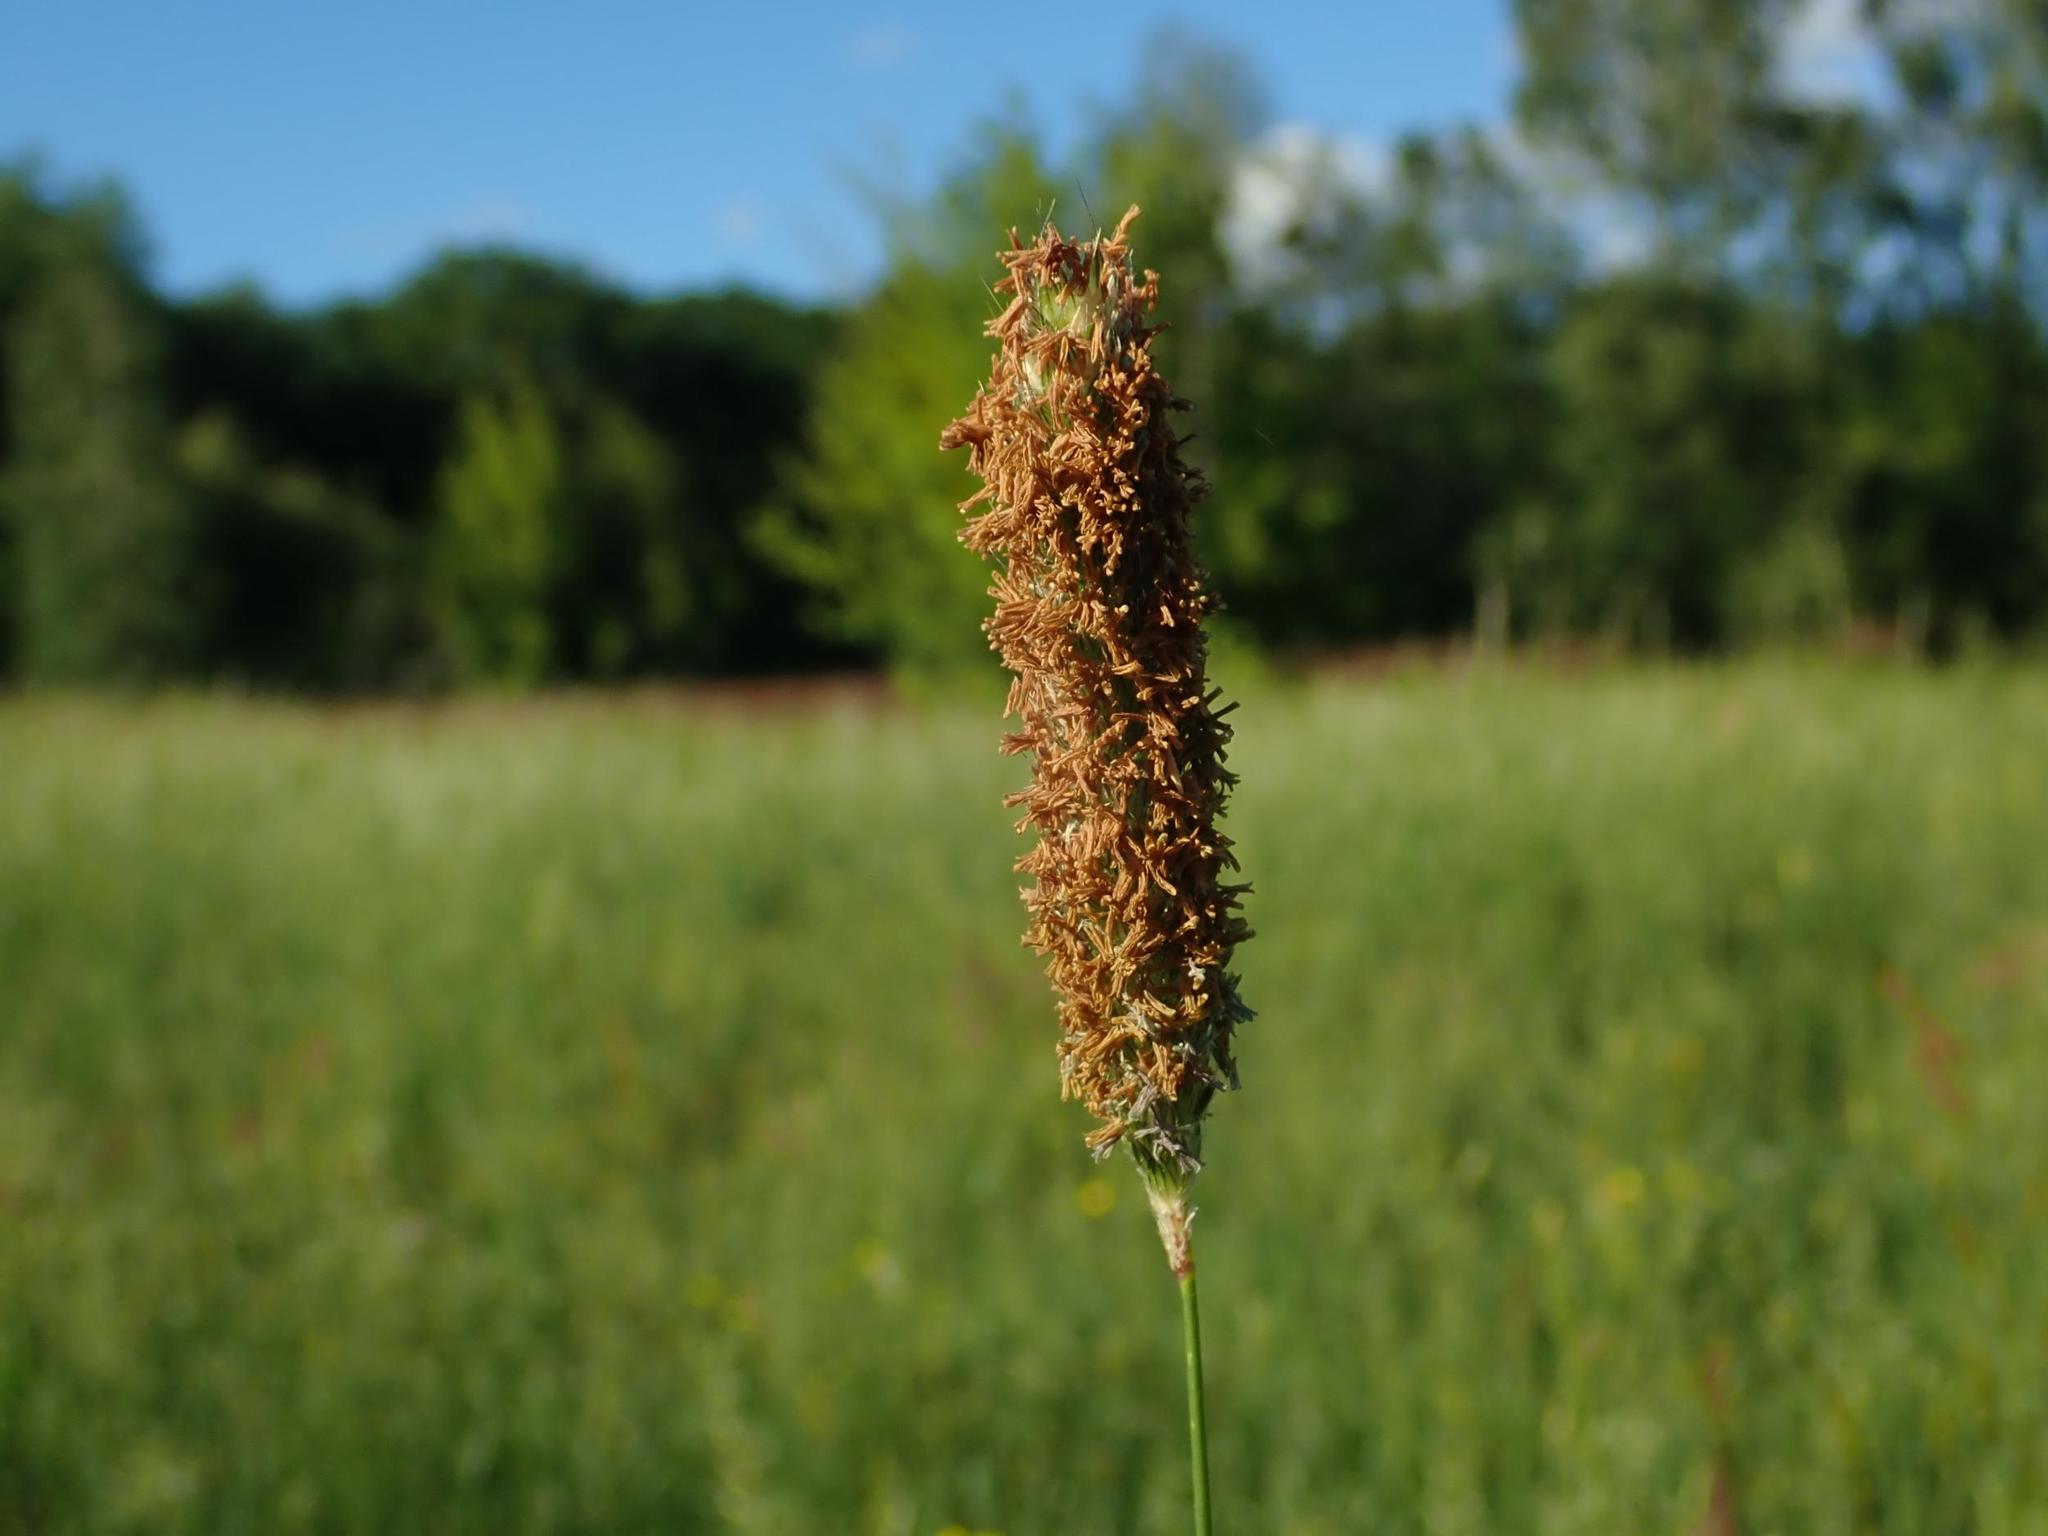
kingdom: Plantae
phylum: Tracheophyta
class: Liliopsida
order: Poales
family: Poaceae
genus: Alopecurus
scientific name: Alopecurus pratensis
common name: Meadow foxtail
